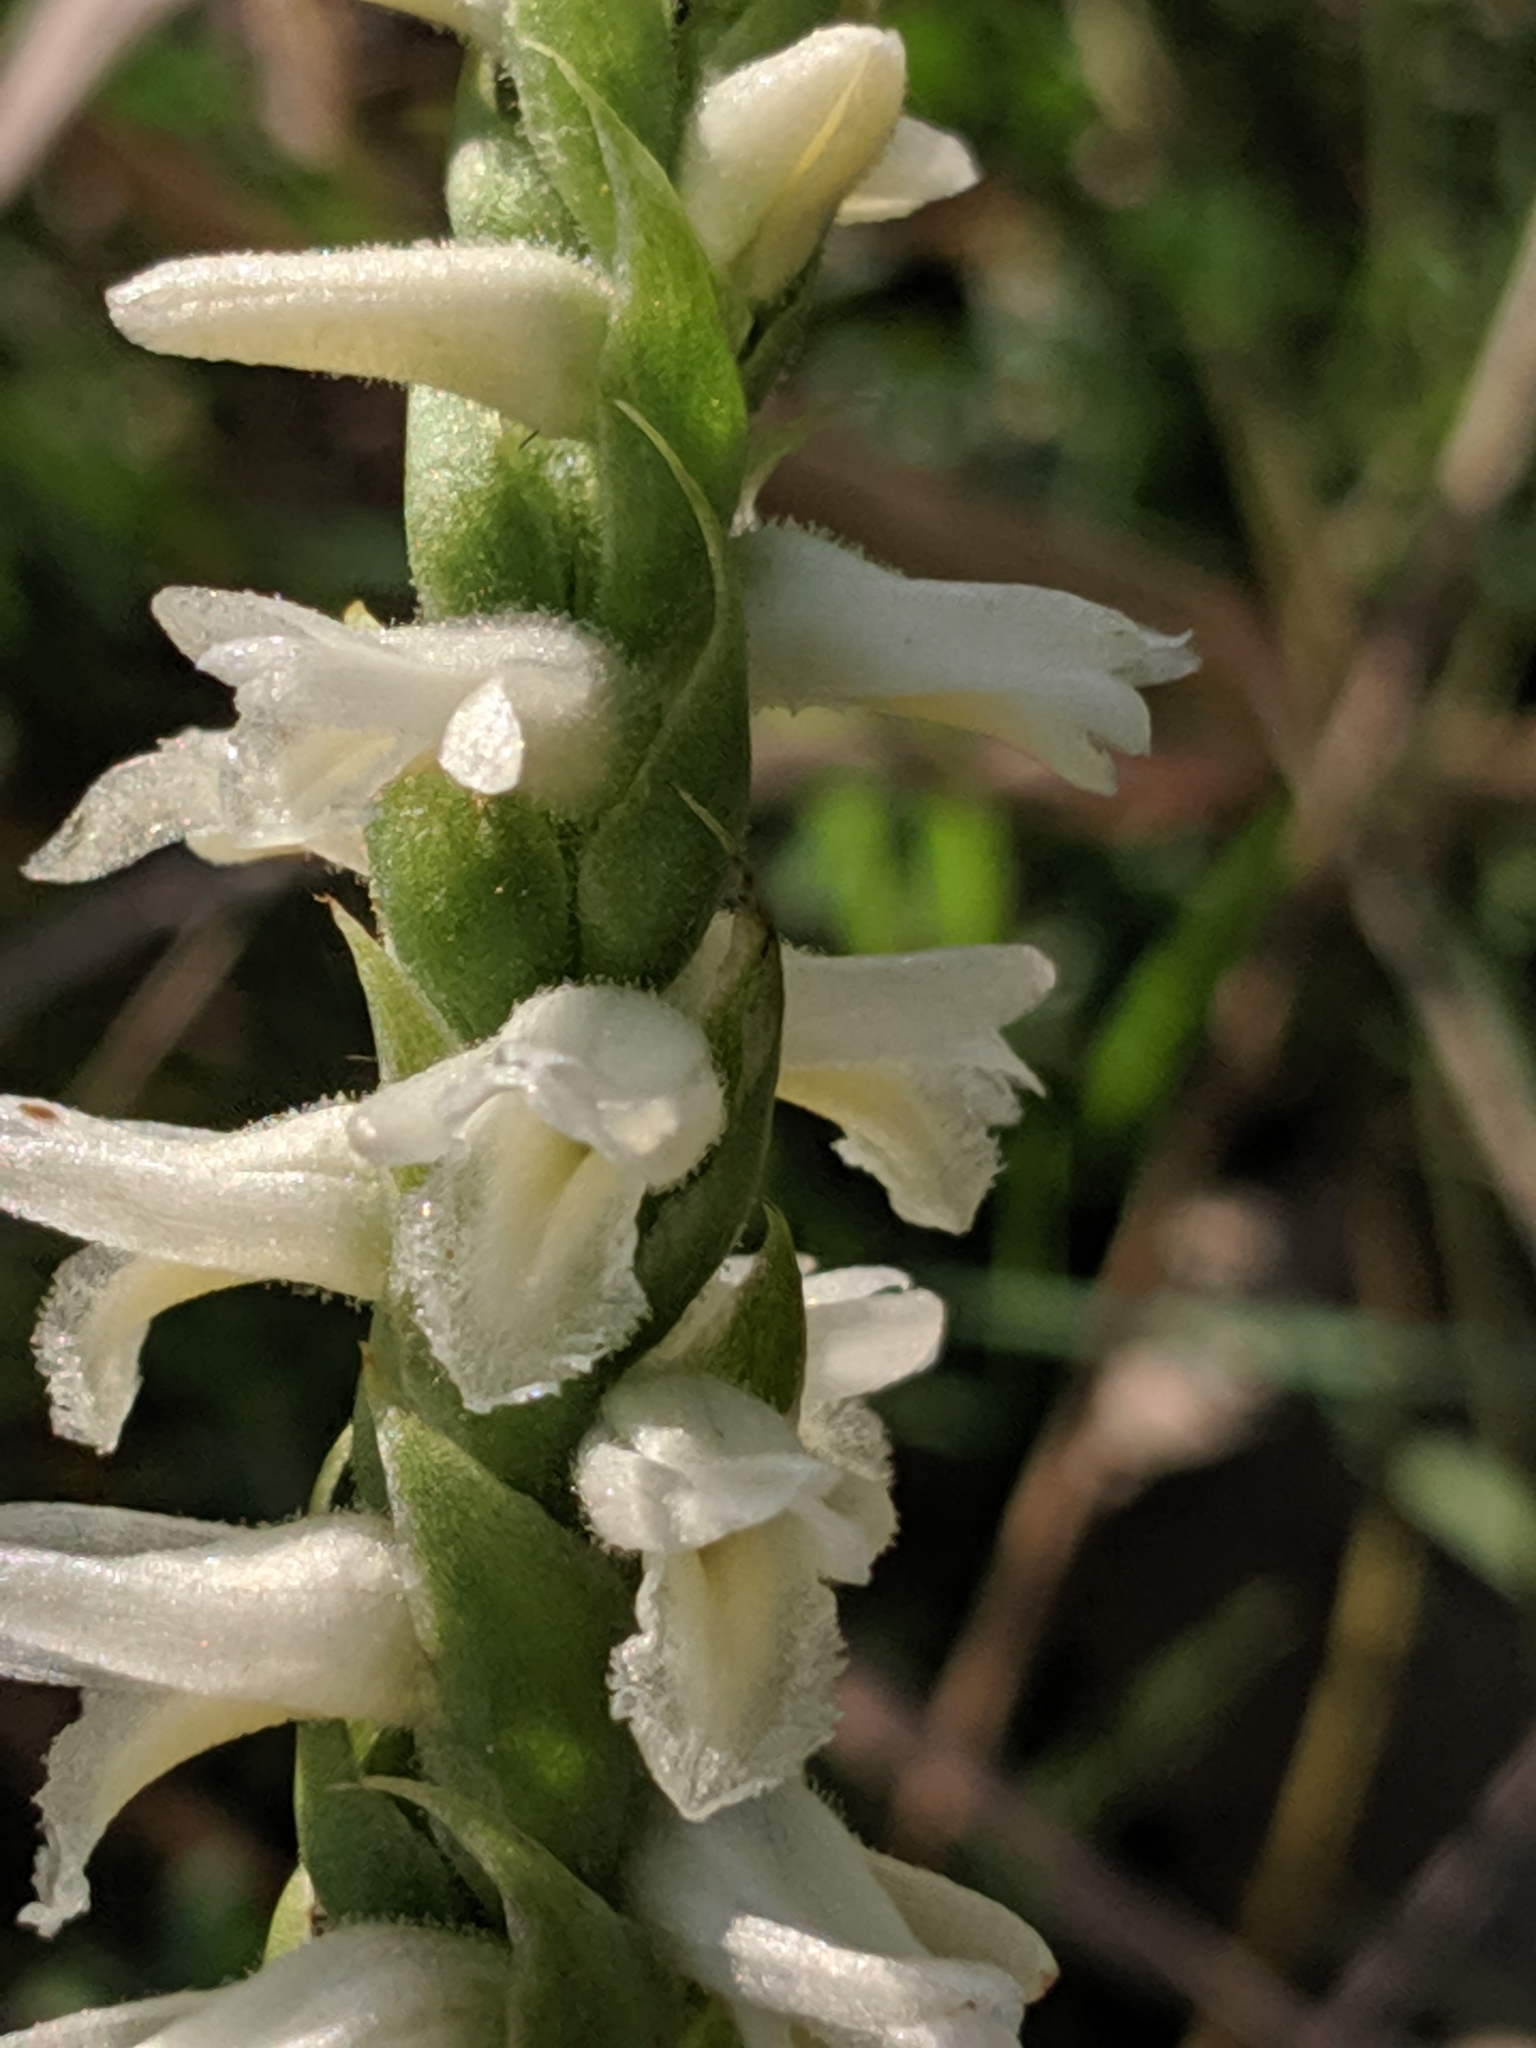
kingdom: Plantae
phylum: Tracheophyta
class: Liliopsida
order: Asparagales
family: Orchidaceae
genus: Spiranthes
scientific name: Spiranthes magnicamporum
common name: Great plains ladies'-tresses
